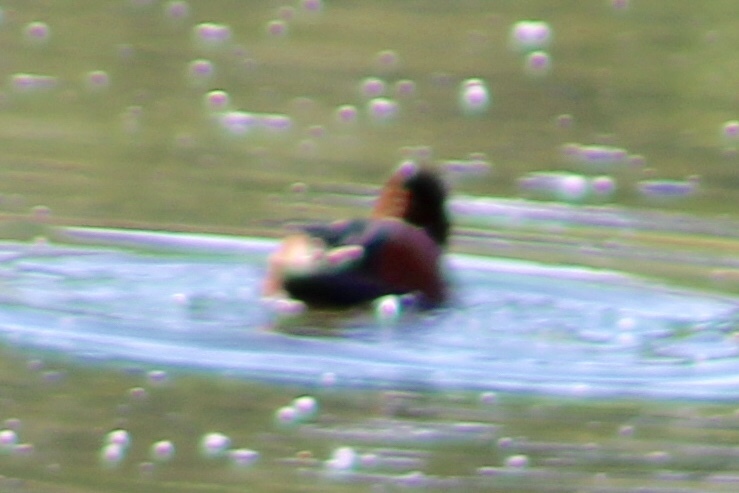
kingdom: Animalia
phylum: Chordata
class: Aves
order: Anseriformes
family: Anatidae
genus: Spatula
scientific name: Spatula cyanoptera
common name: Cinnamon teal
